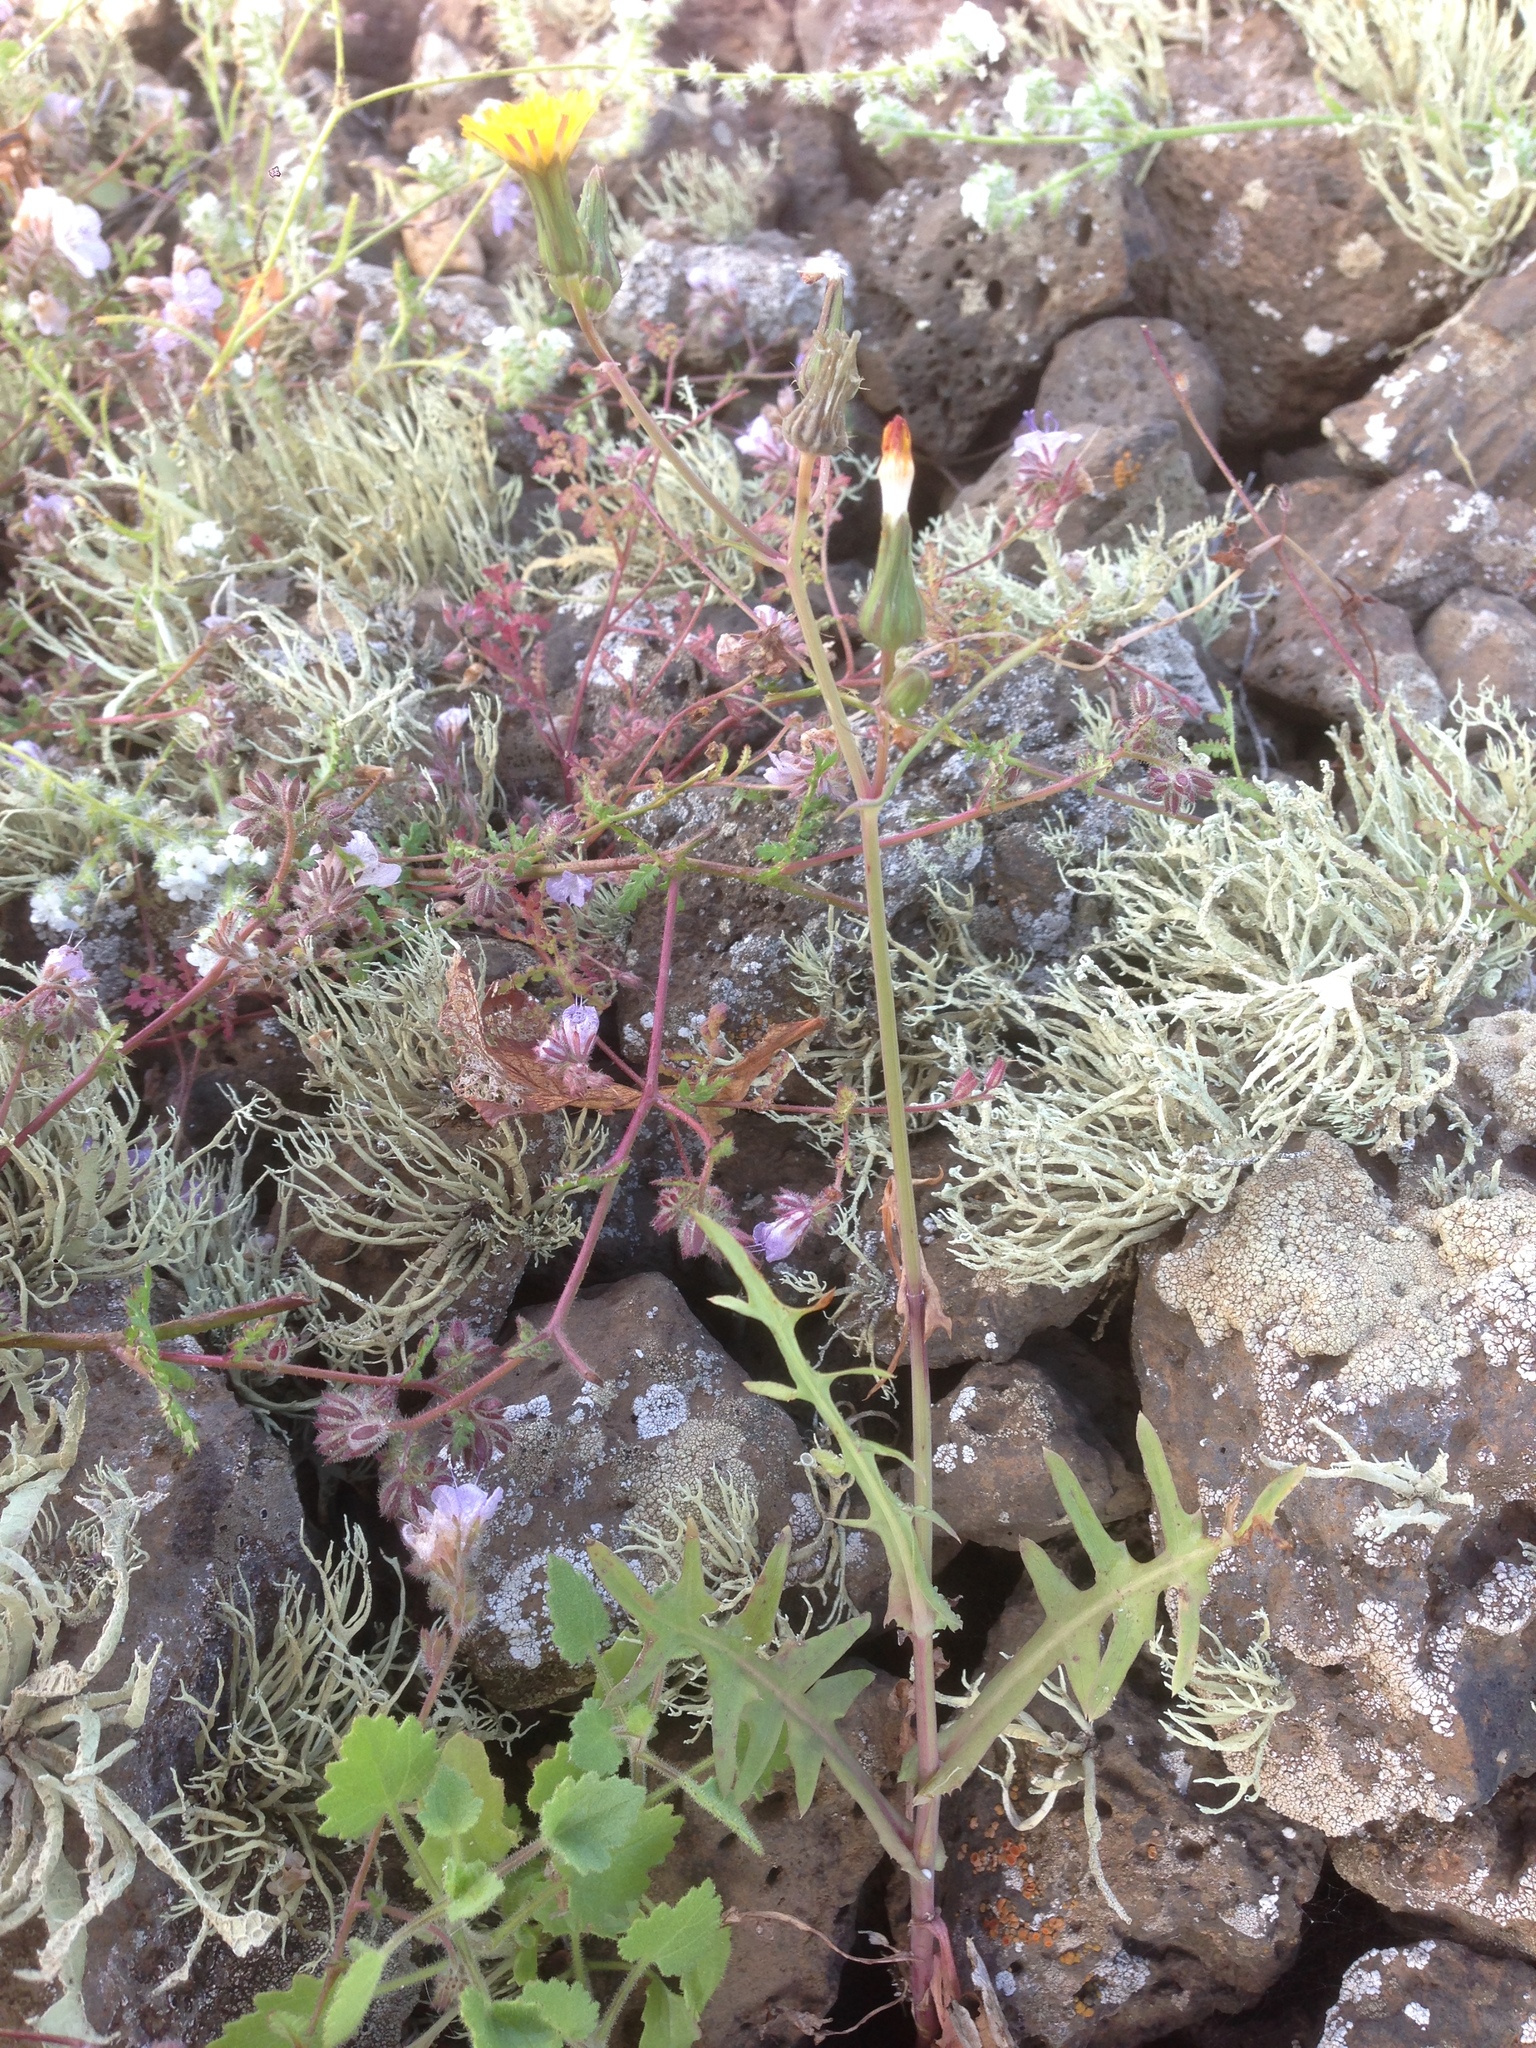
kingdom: Plantae
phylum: Tracheophyta
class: Magnoliopsida
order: Asterales
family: Asteraceae
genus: Sonchus
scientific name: Sonchus tenerrimus
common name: Clammy sowthistle
